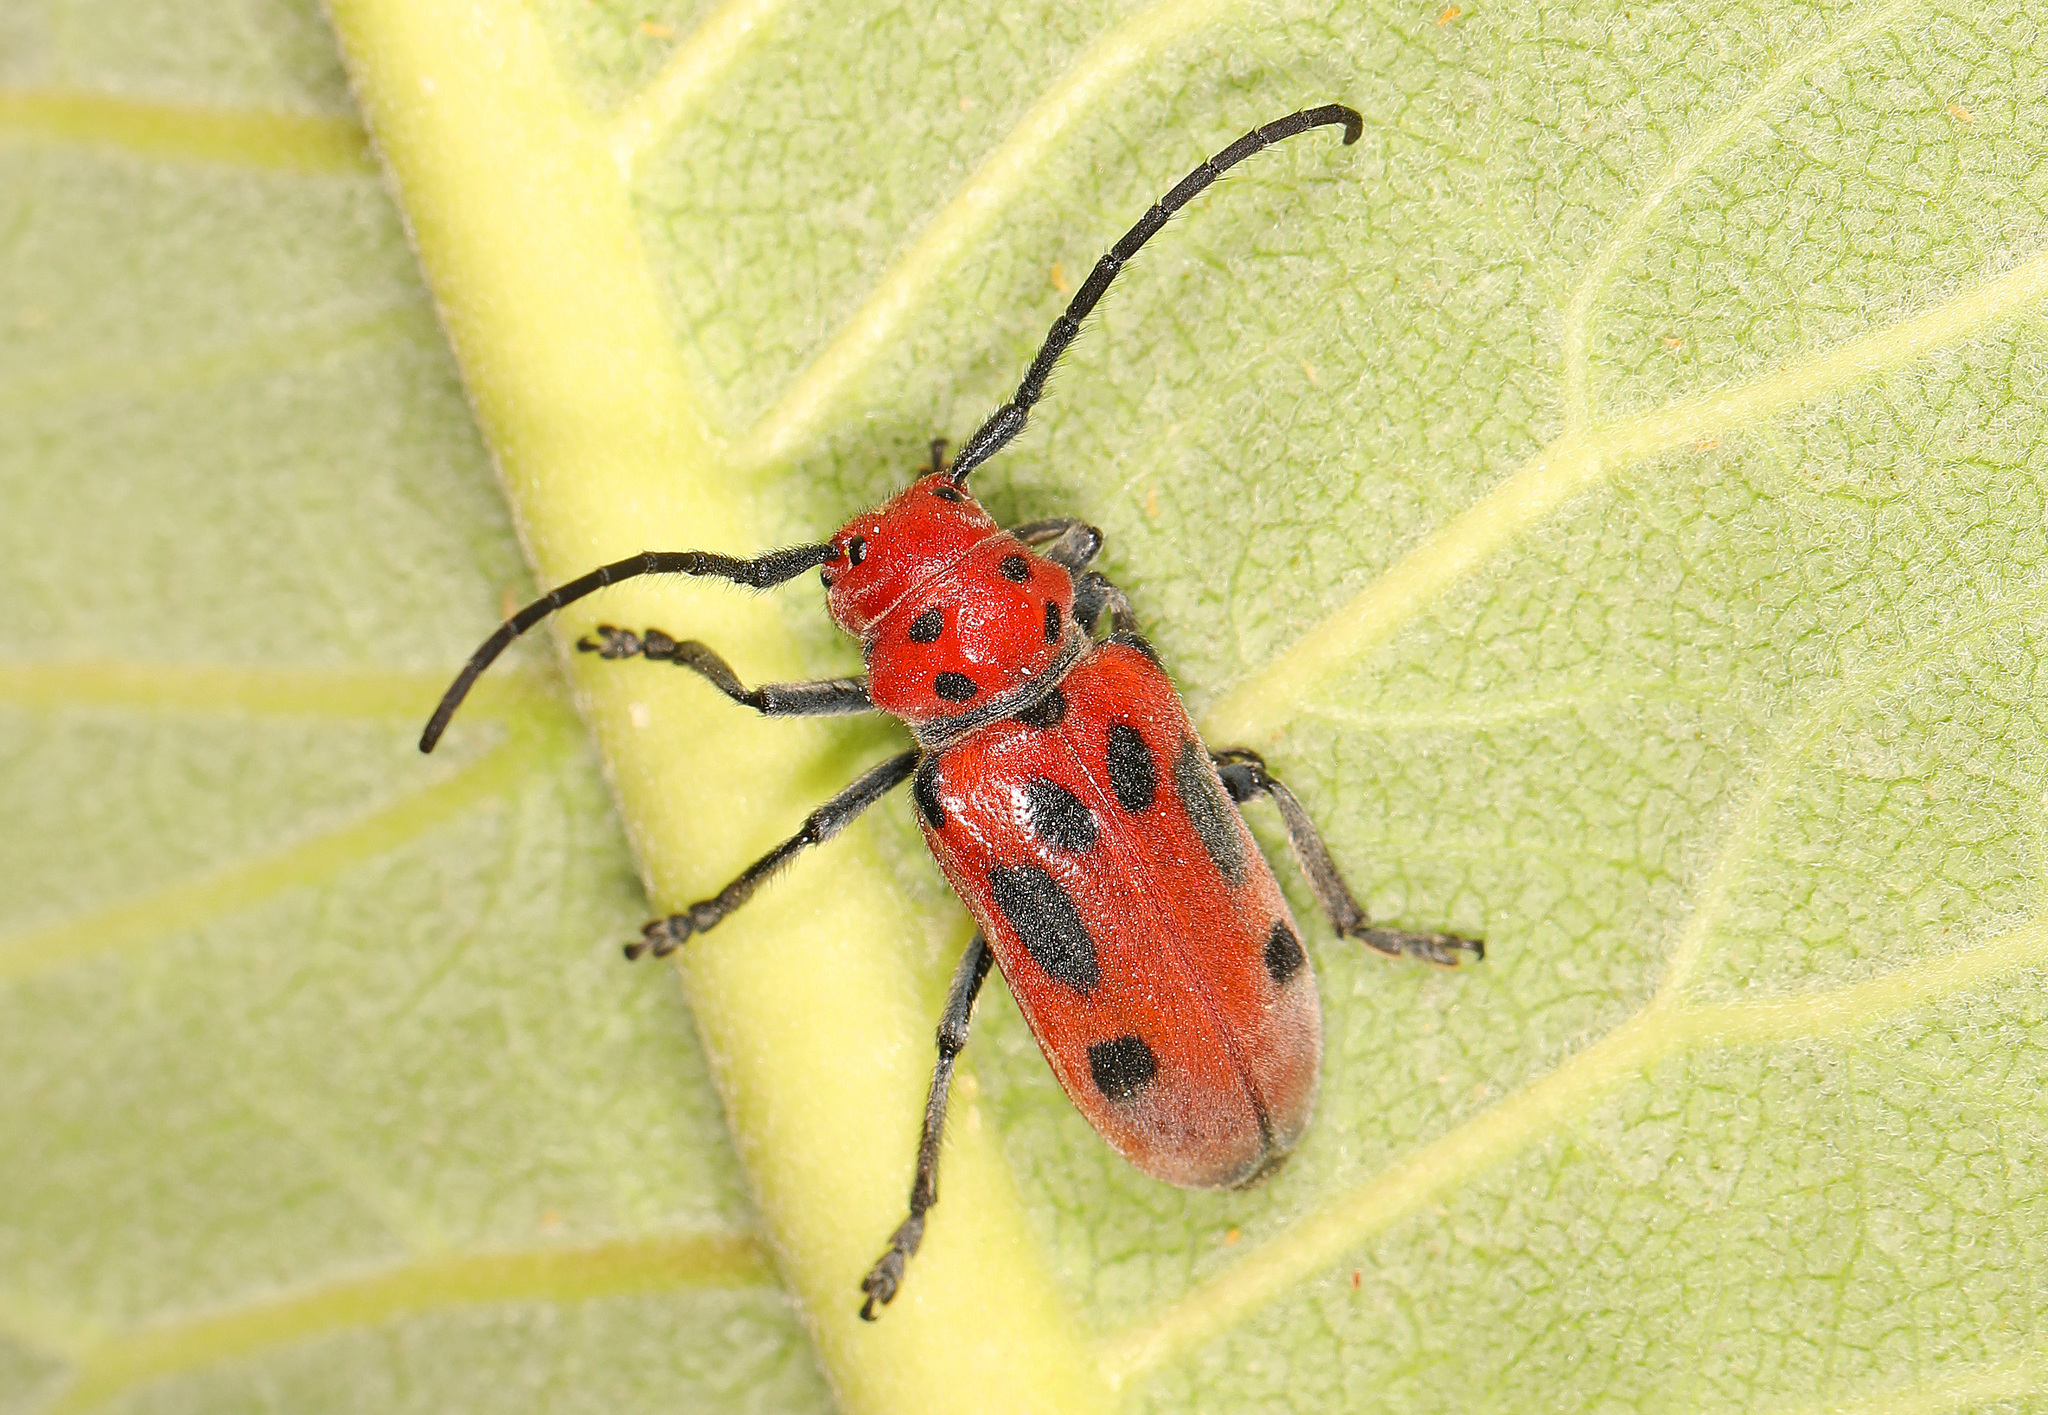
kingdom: Animalia
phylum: Arthropoda
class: Insecta
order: Coleoptera
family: Cerambycidae
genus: Tetraopes
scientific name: Tetraopes tetrophthalmus
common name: Red milkweed beetle
